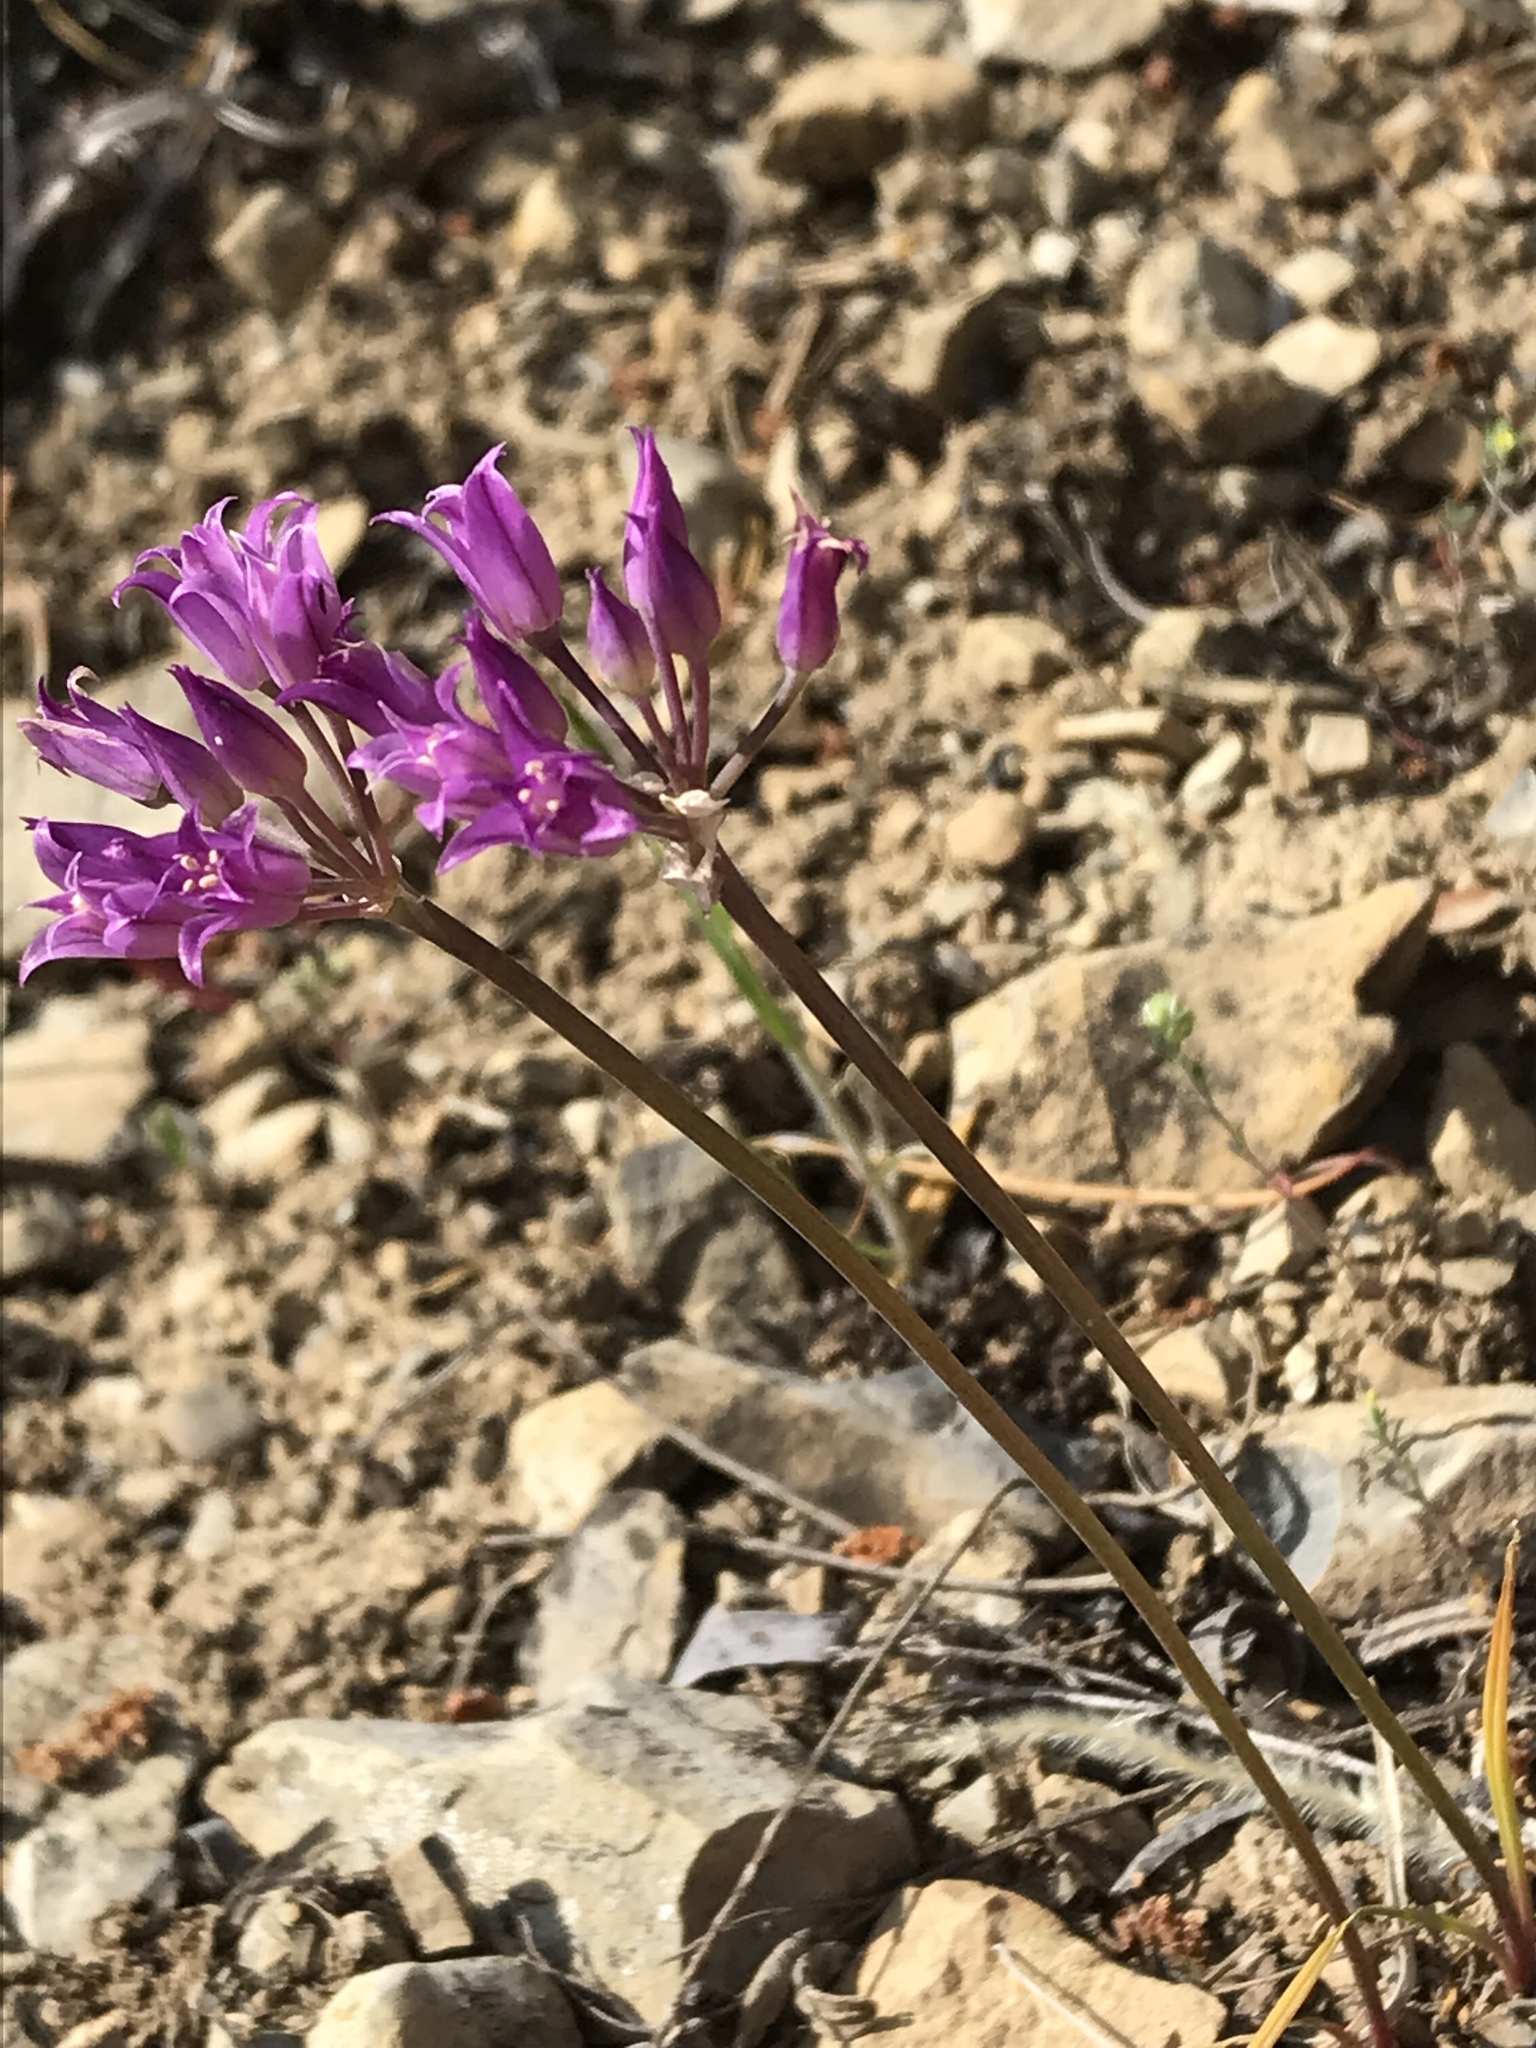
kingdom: Plantae
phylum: Tracheophyta
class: Liliopsida
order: Asparagales
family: Amaryllidaceae
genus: Allium
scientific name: Allium acuminatum
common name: Hooker's onion
